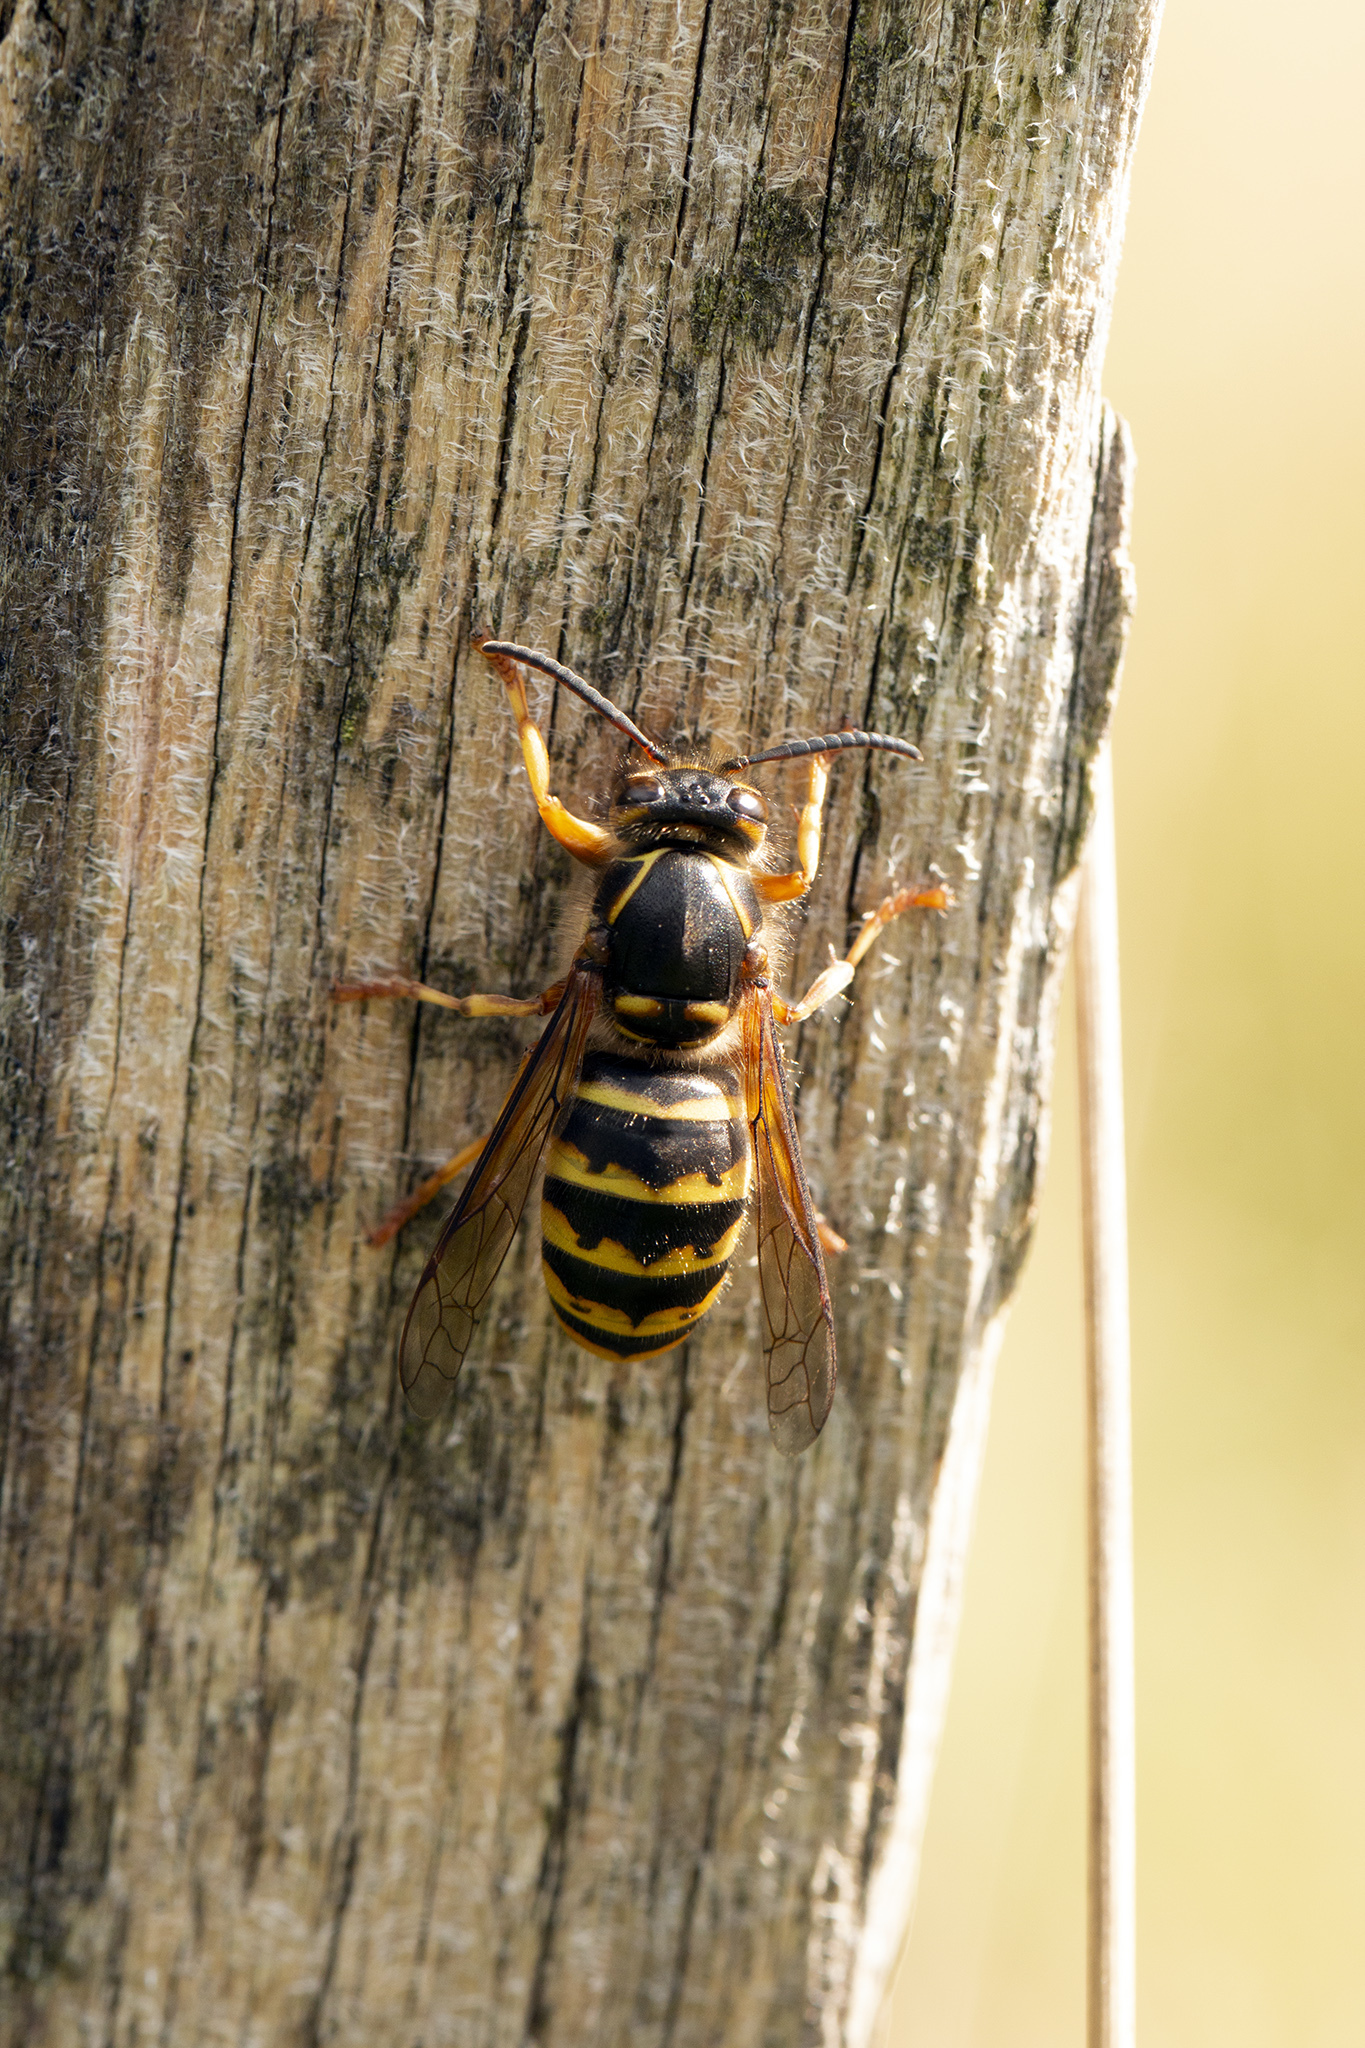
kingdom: Animalia
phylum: Arthropoda
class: Insecta
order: Hymenoptera
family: Vespidae
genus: Dolichovespula
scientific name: Dolichovespula media
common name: Median wasp
